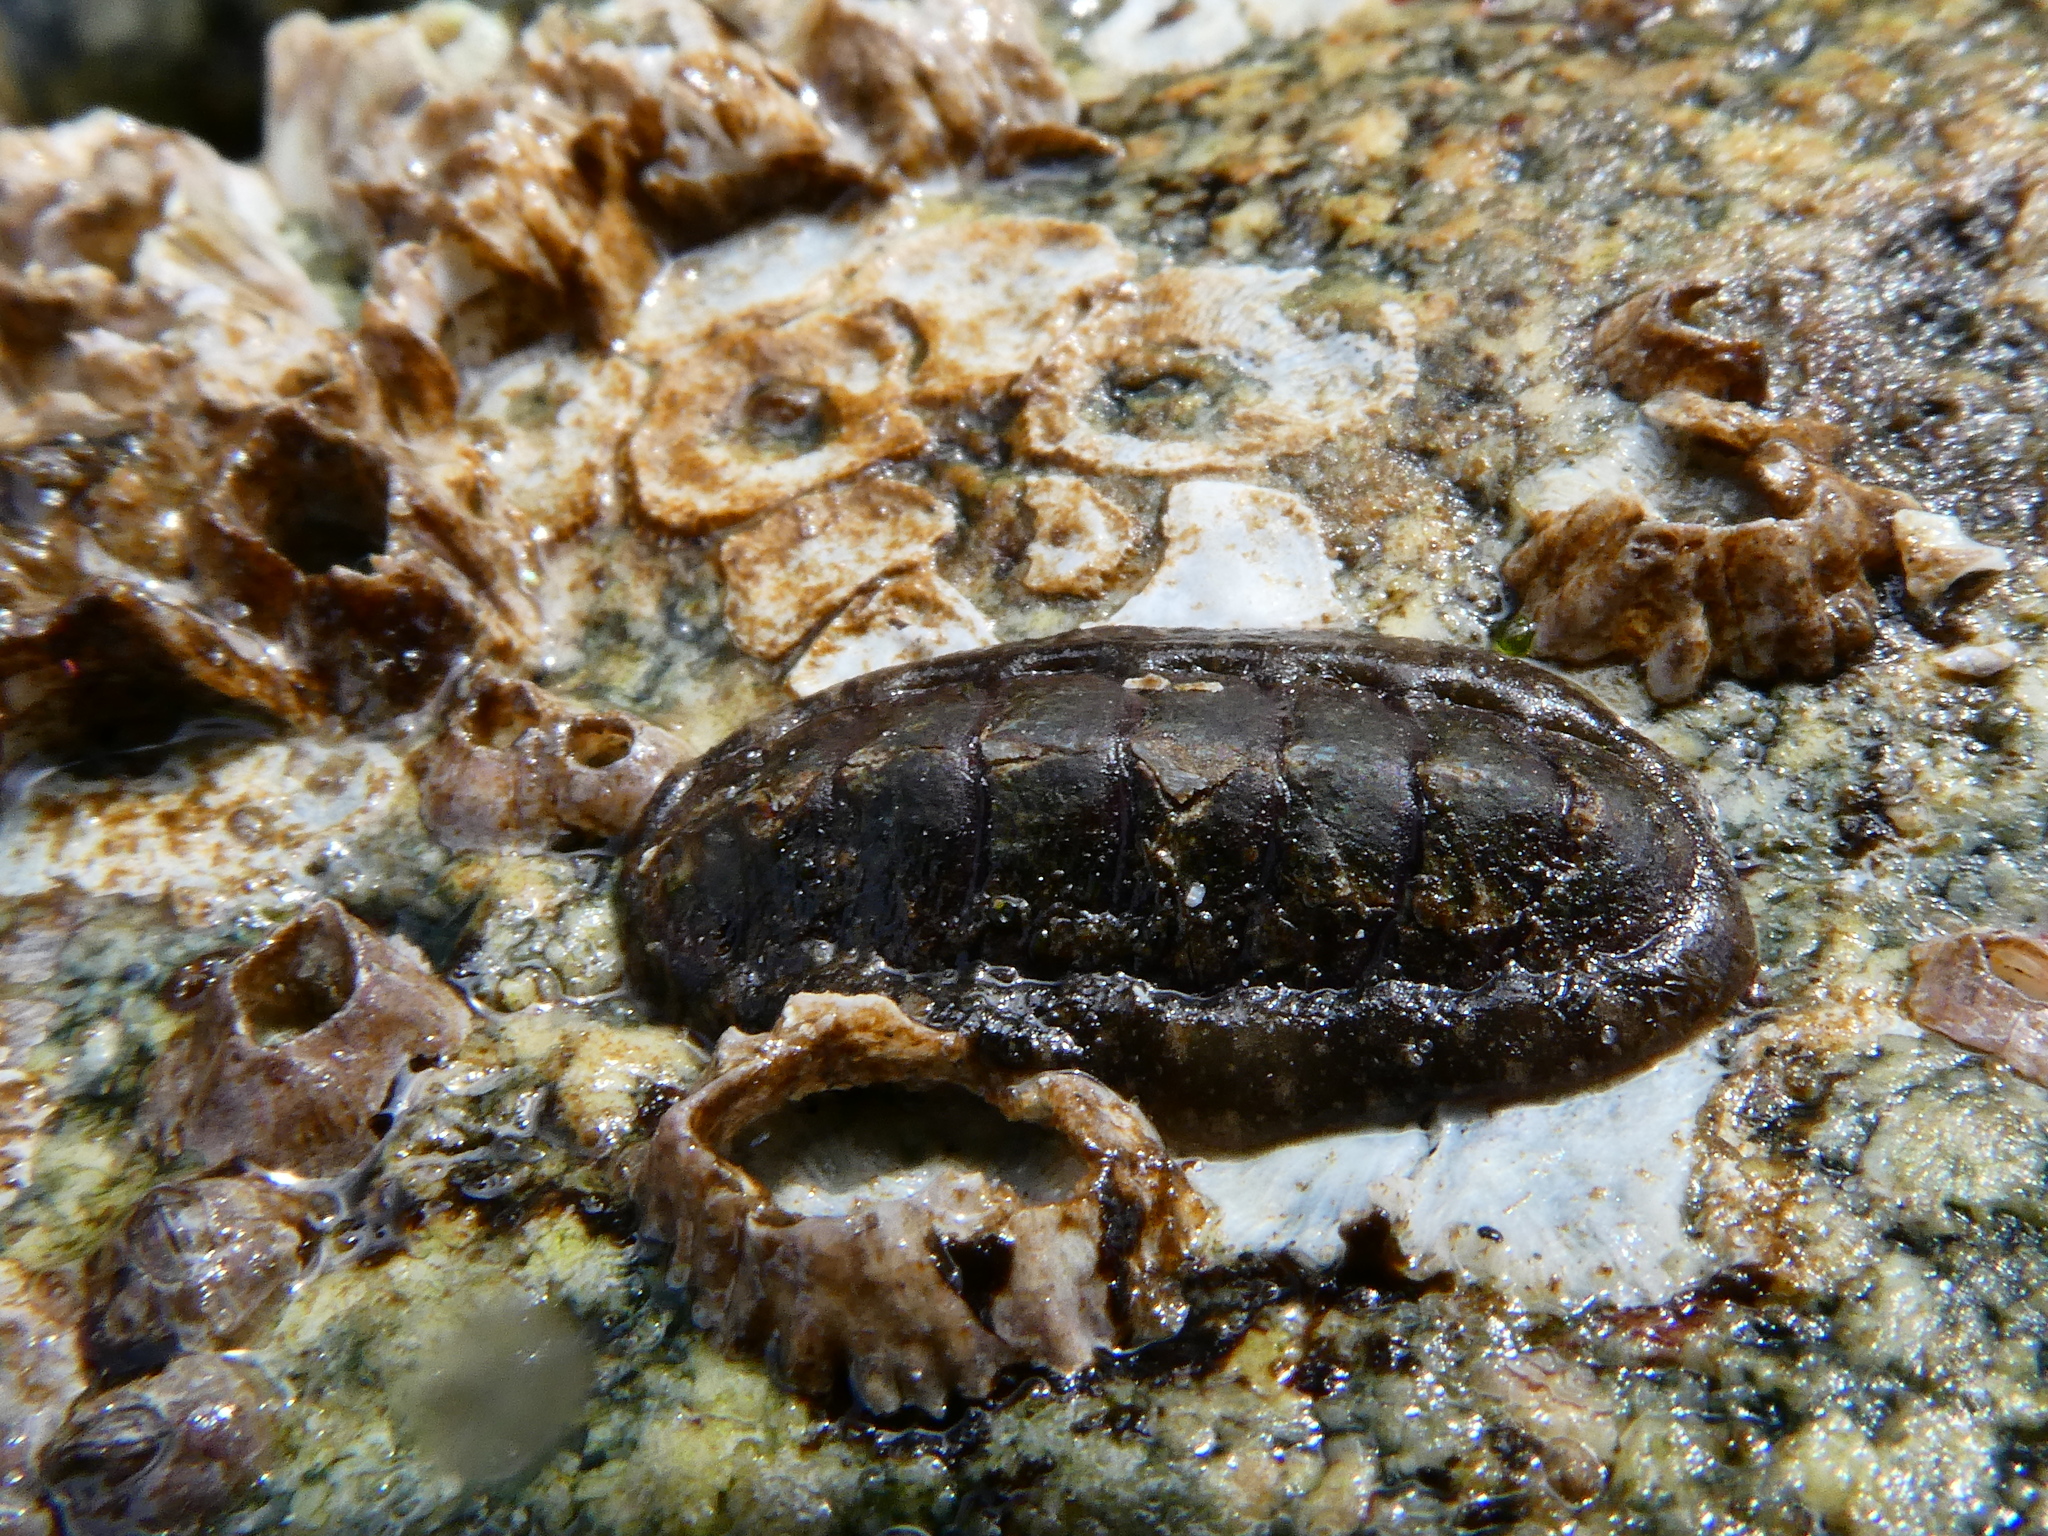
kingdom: Animalia
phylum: Mollusca
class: Polyplacophora
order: Chitonida
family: Tonicellidae
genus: Cyanoplax
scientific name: Cyanoplax dentiens
